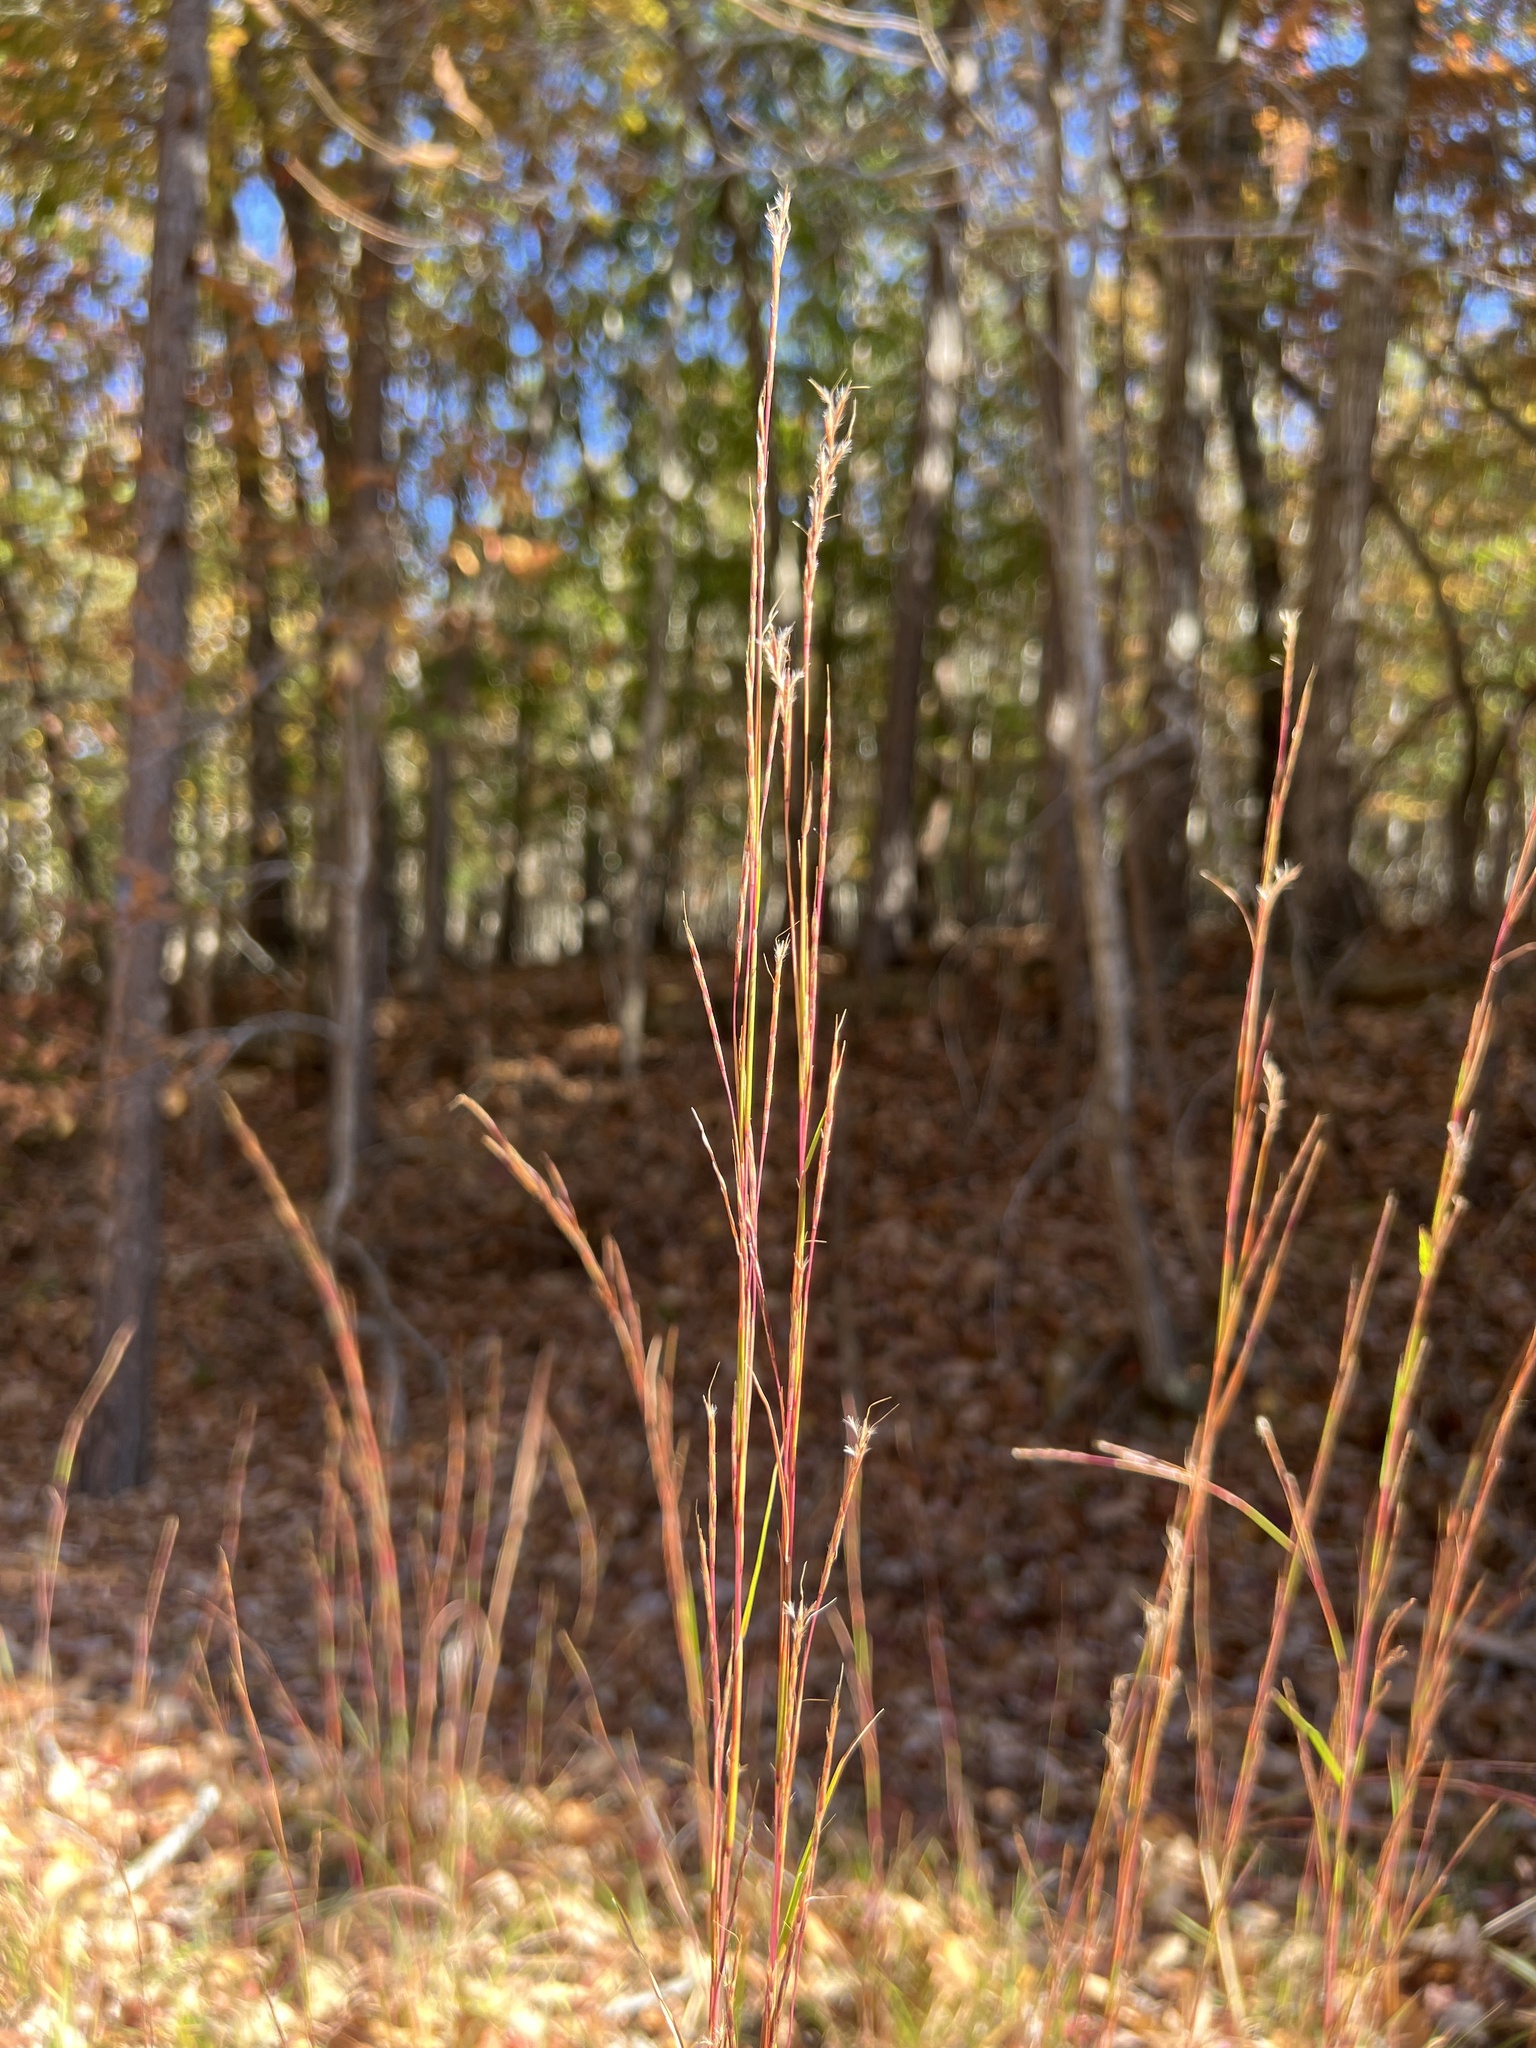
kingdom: Plantae
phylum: Tracheophyta
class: Liliopsida
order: Poales
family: Poaceae
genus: Schizachyrium
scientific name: Schizachyrium scoparium
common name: Little bluestem
